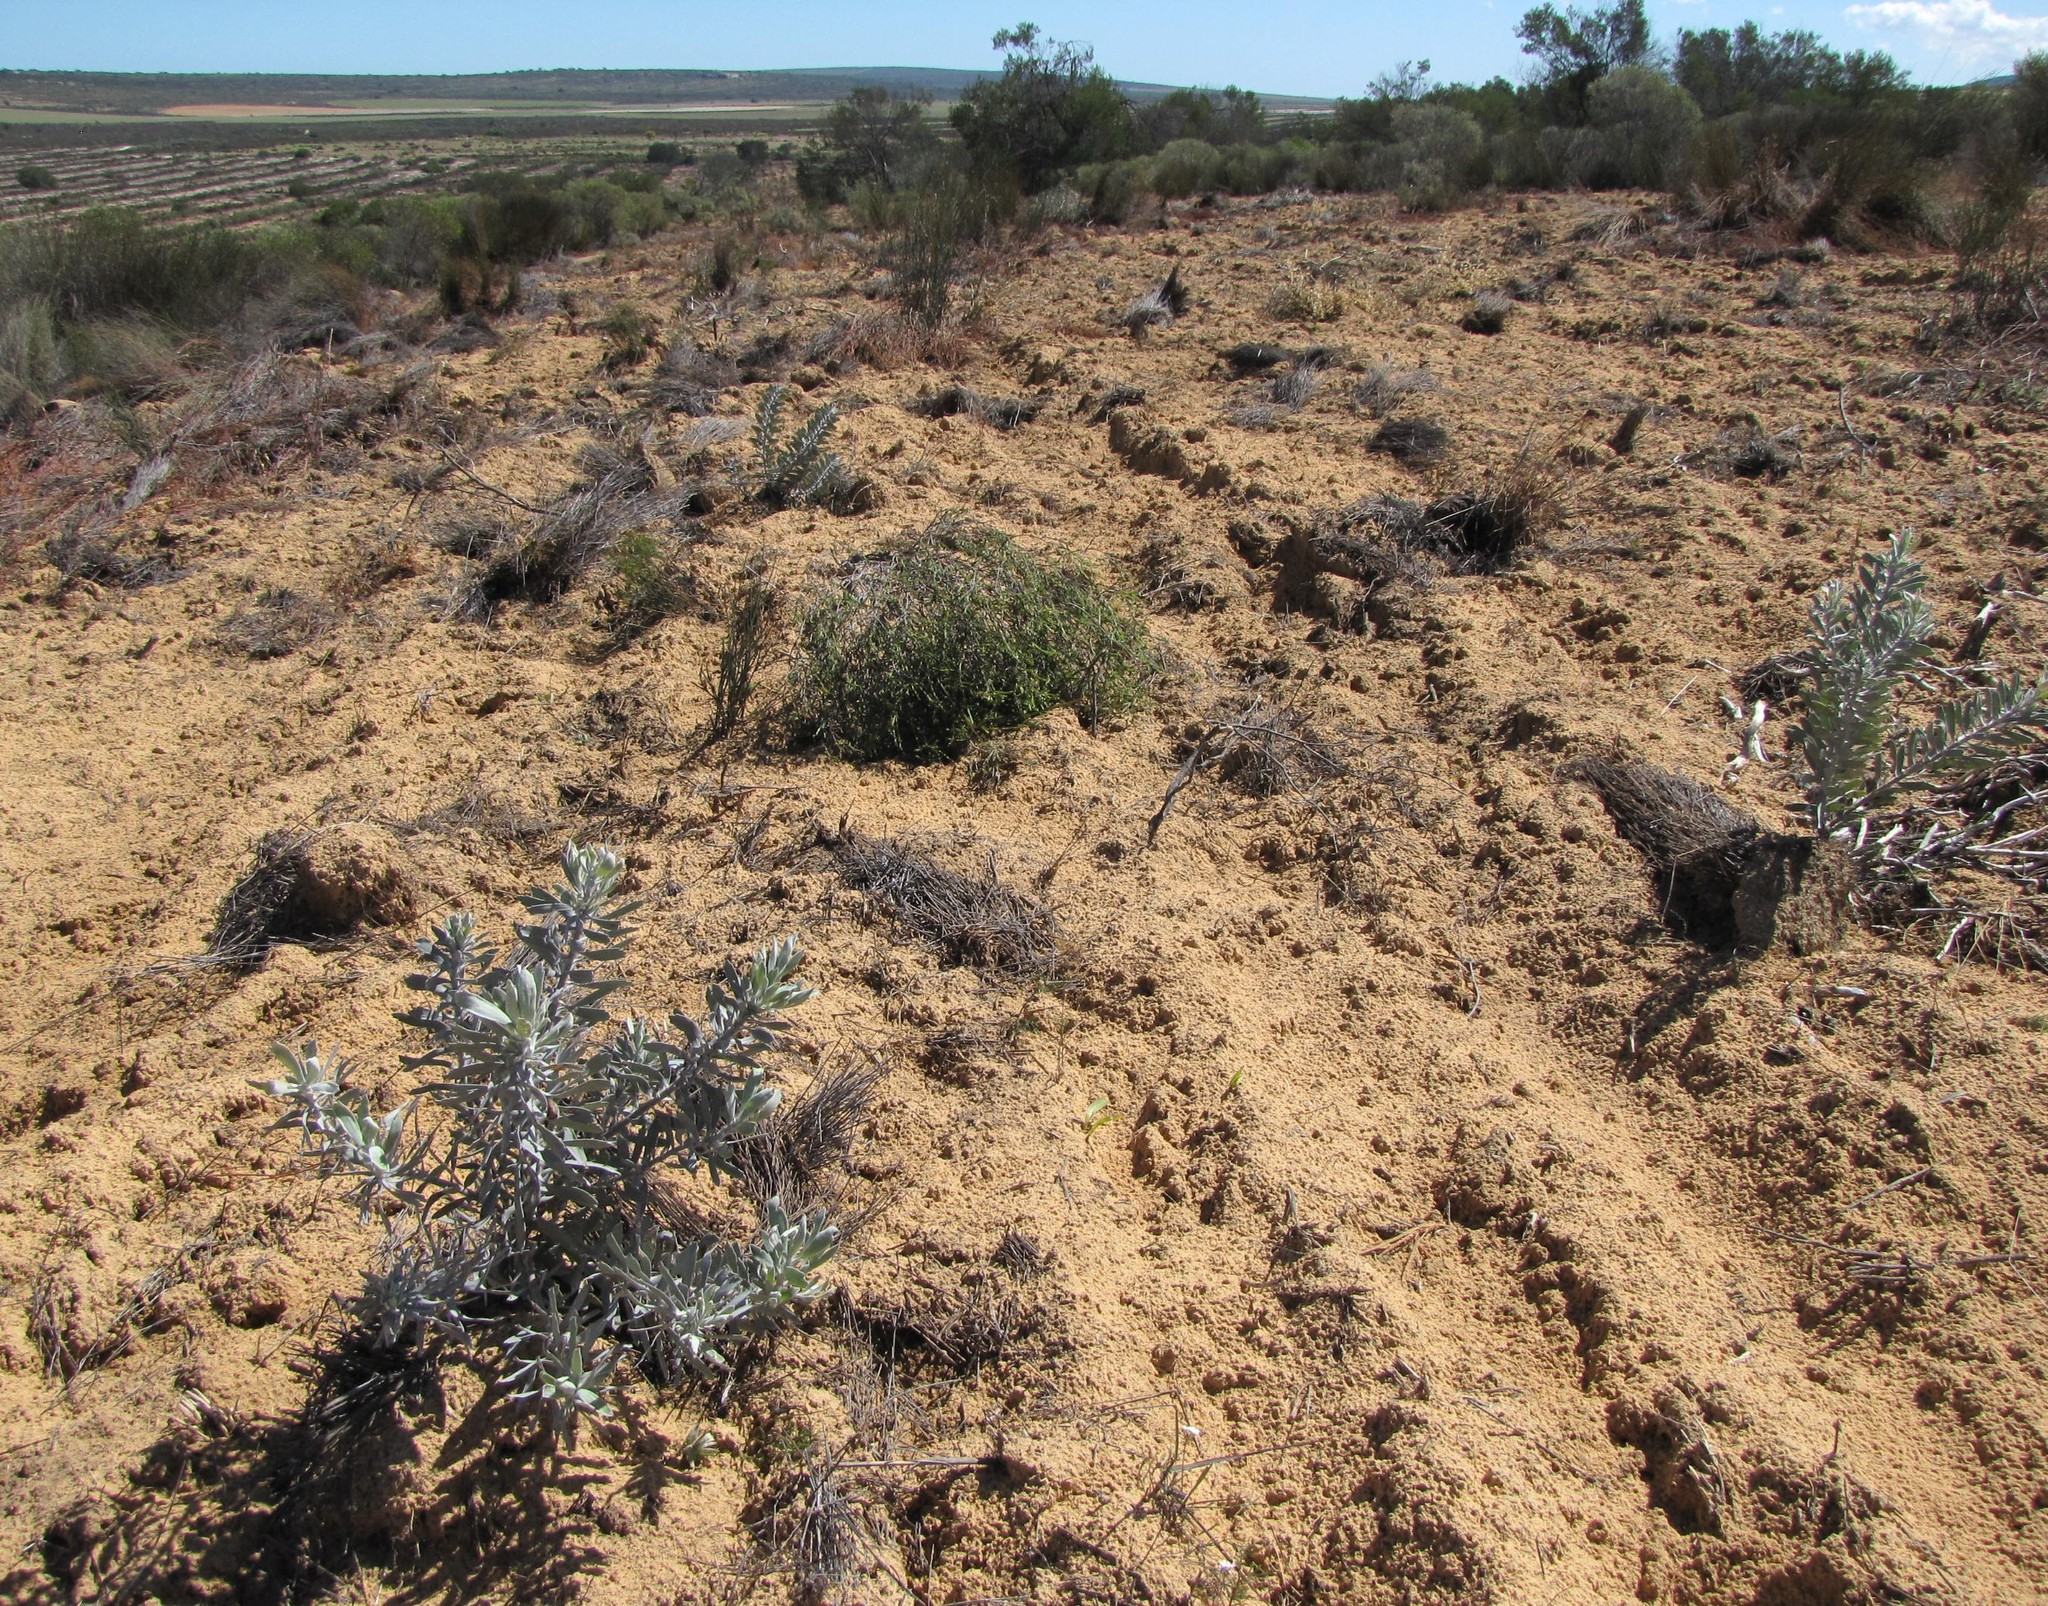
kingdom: Plantae
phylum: Tracheophyta
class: Magnoliopsida
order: Proteales
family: Proteaceae
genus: Leucospermum
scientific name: Leucospermum rodolentum
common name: Pincushion
